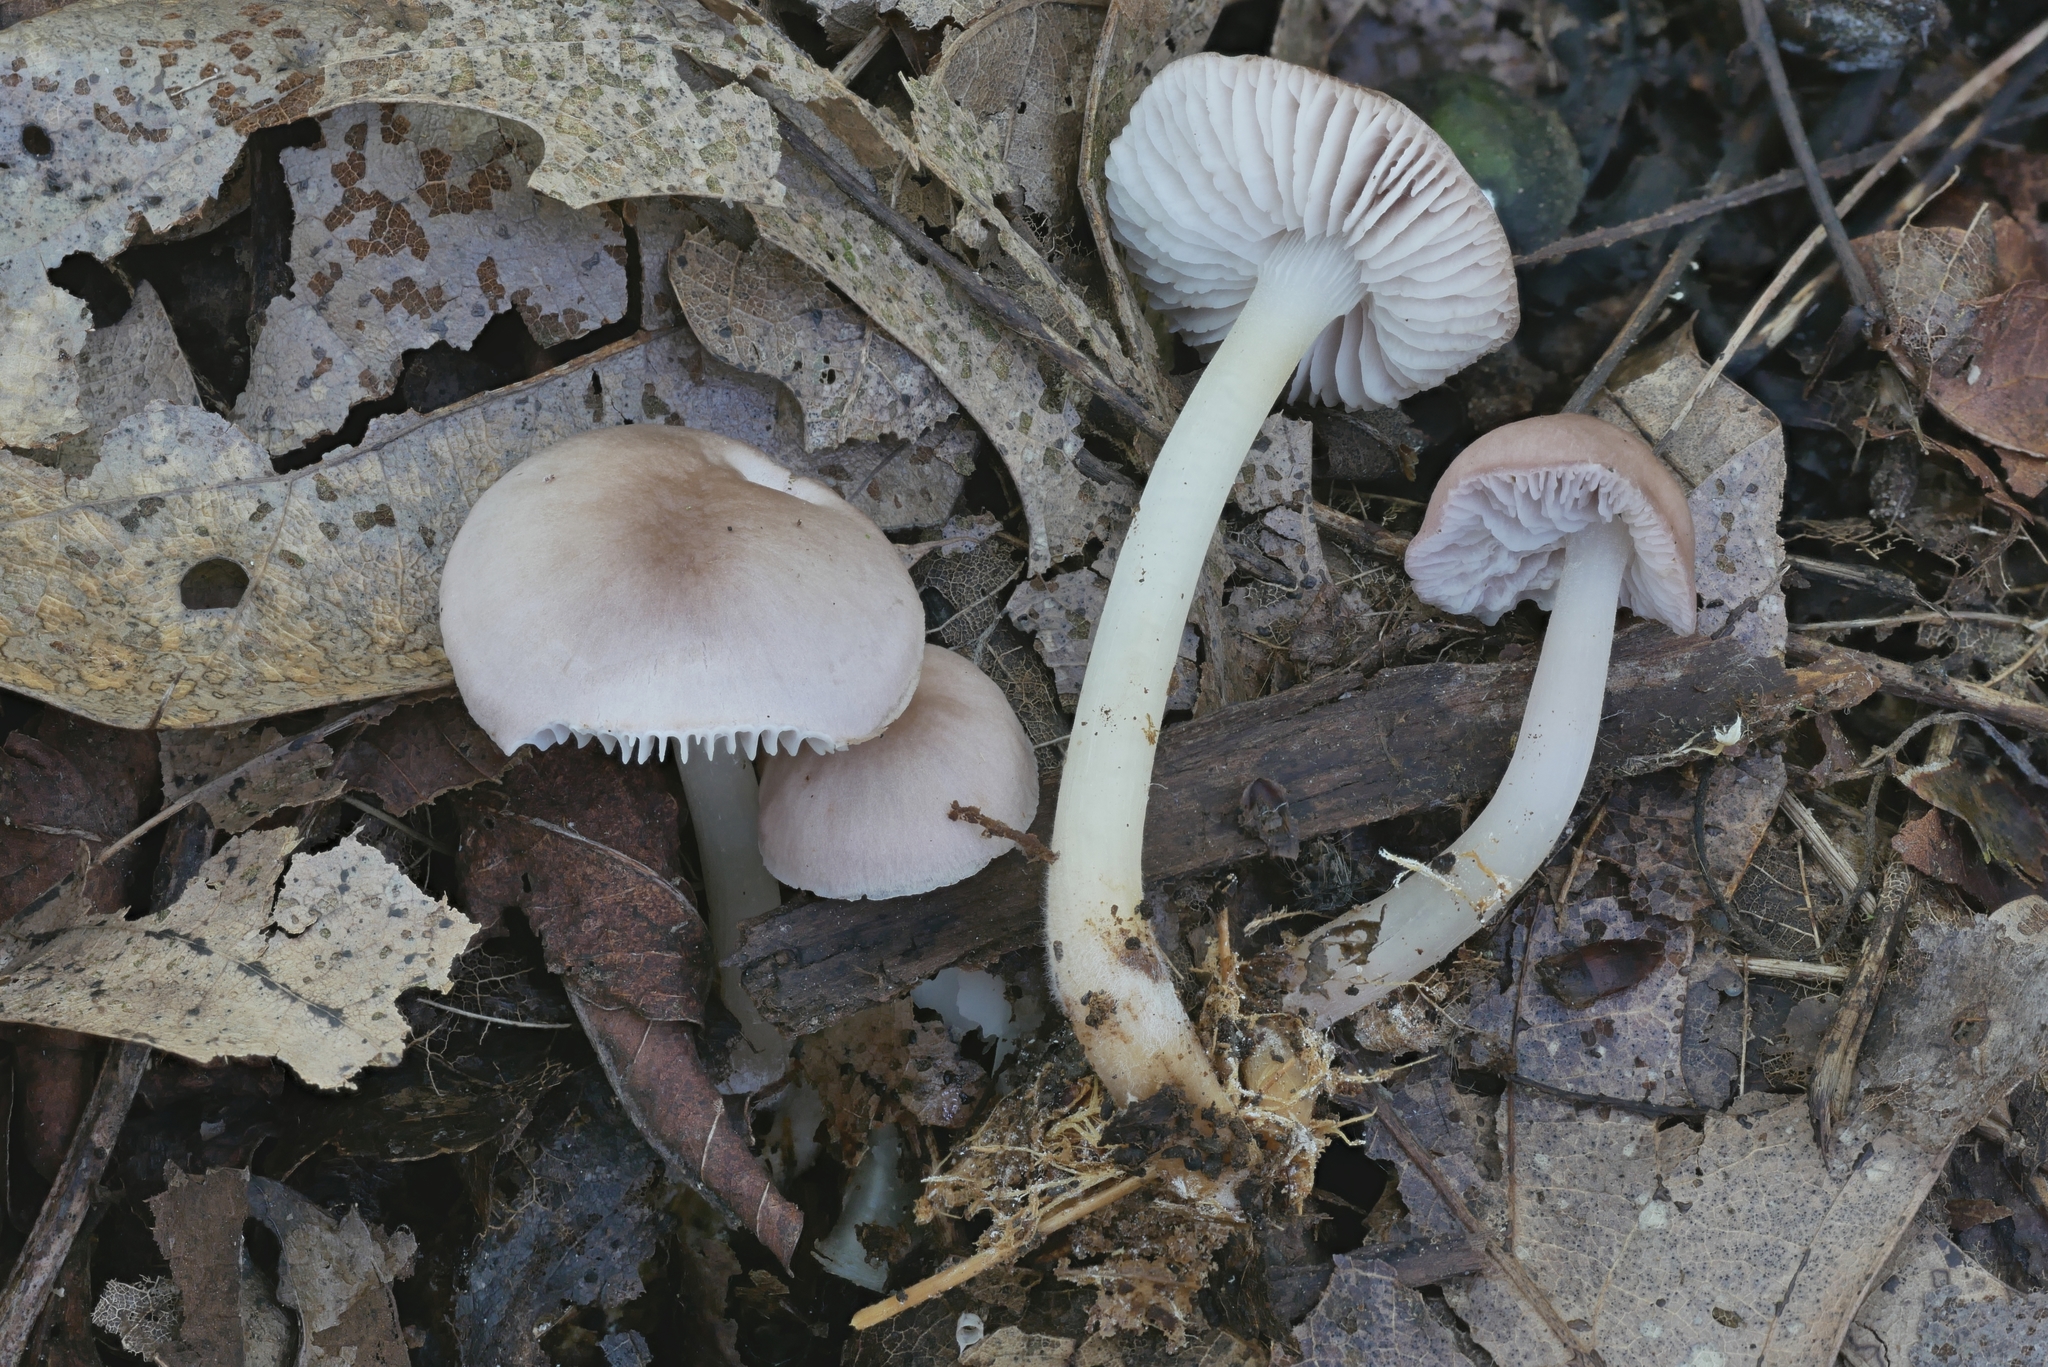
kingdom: Fungi
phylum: Basidiomycota
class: Agaricomycetes
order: Agaricales
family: Mycenaceae
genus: Mycena
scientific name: Mycena pura
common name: Lilac bonnet
